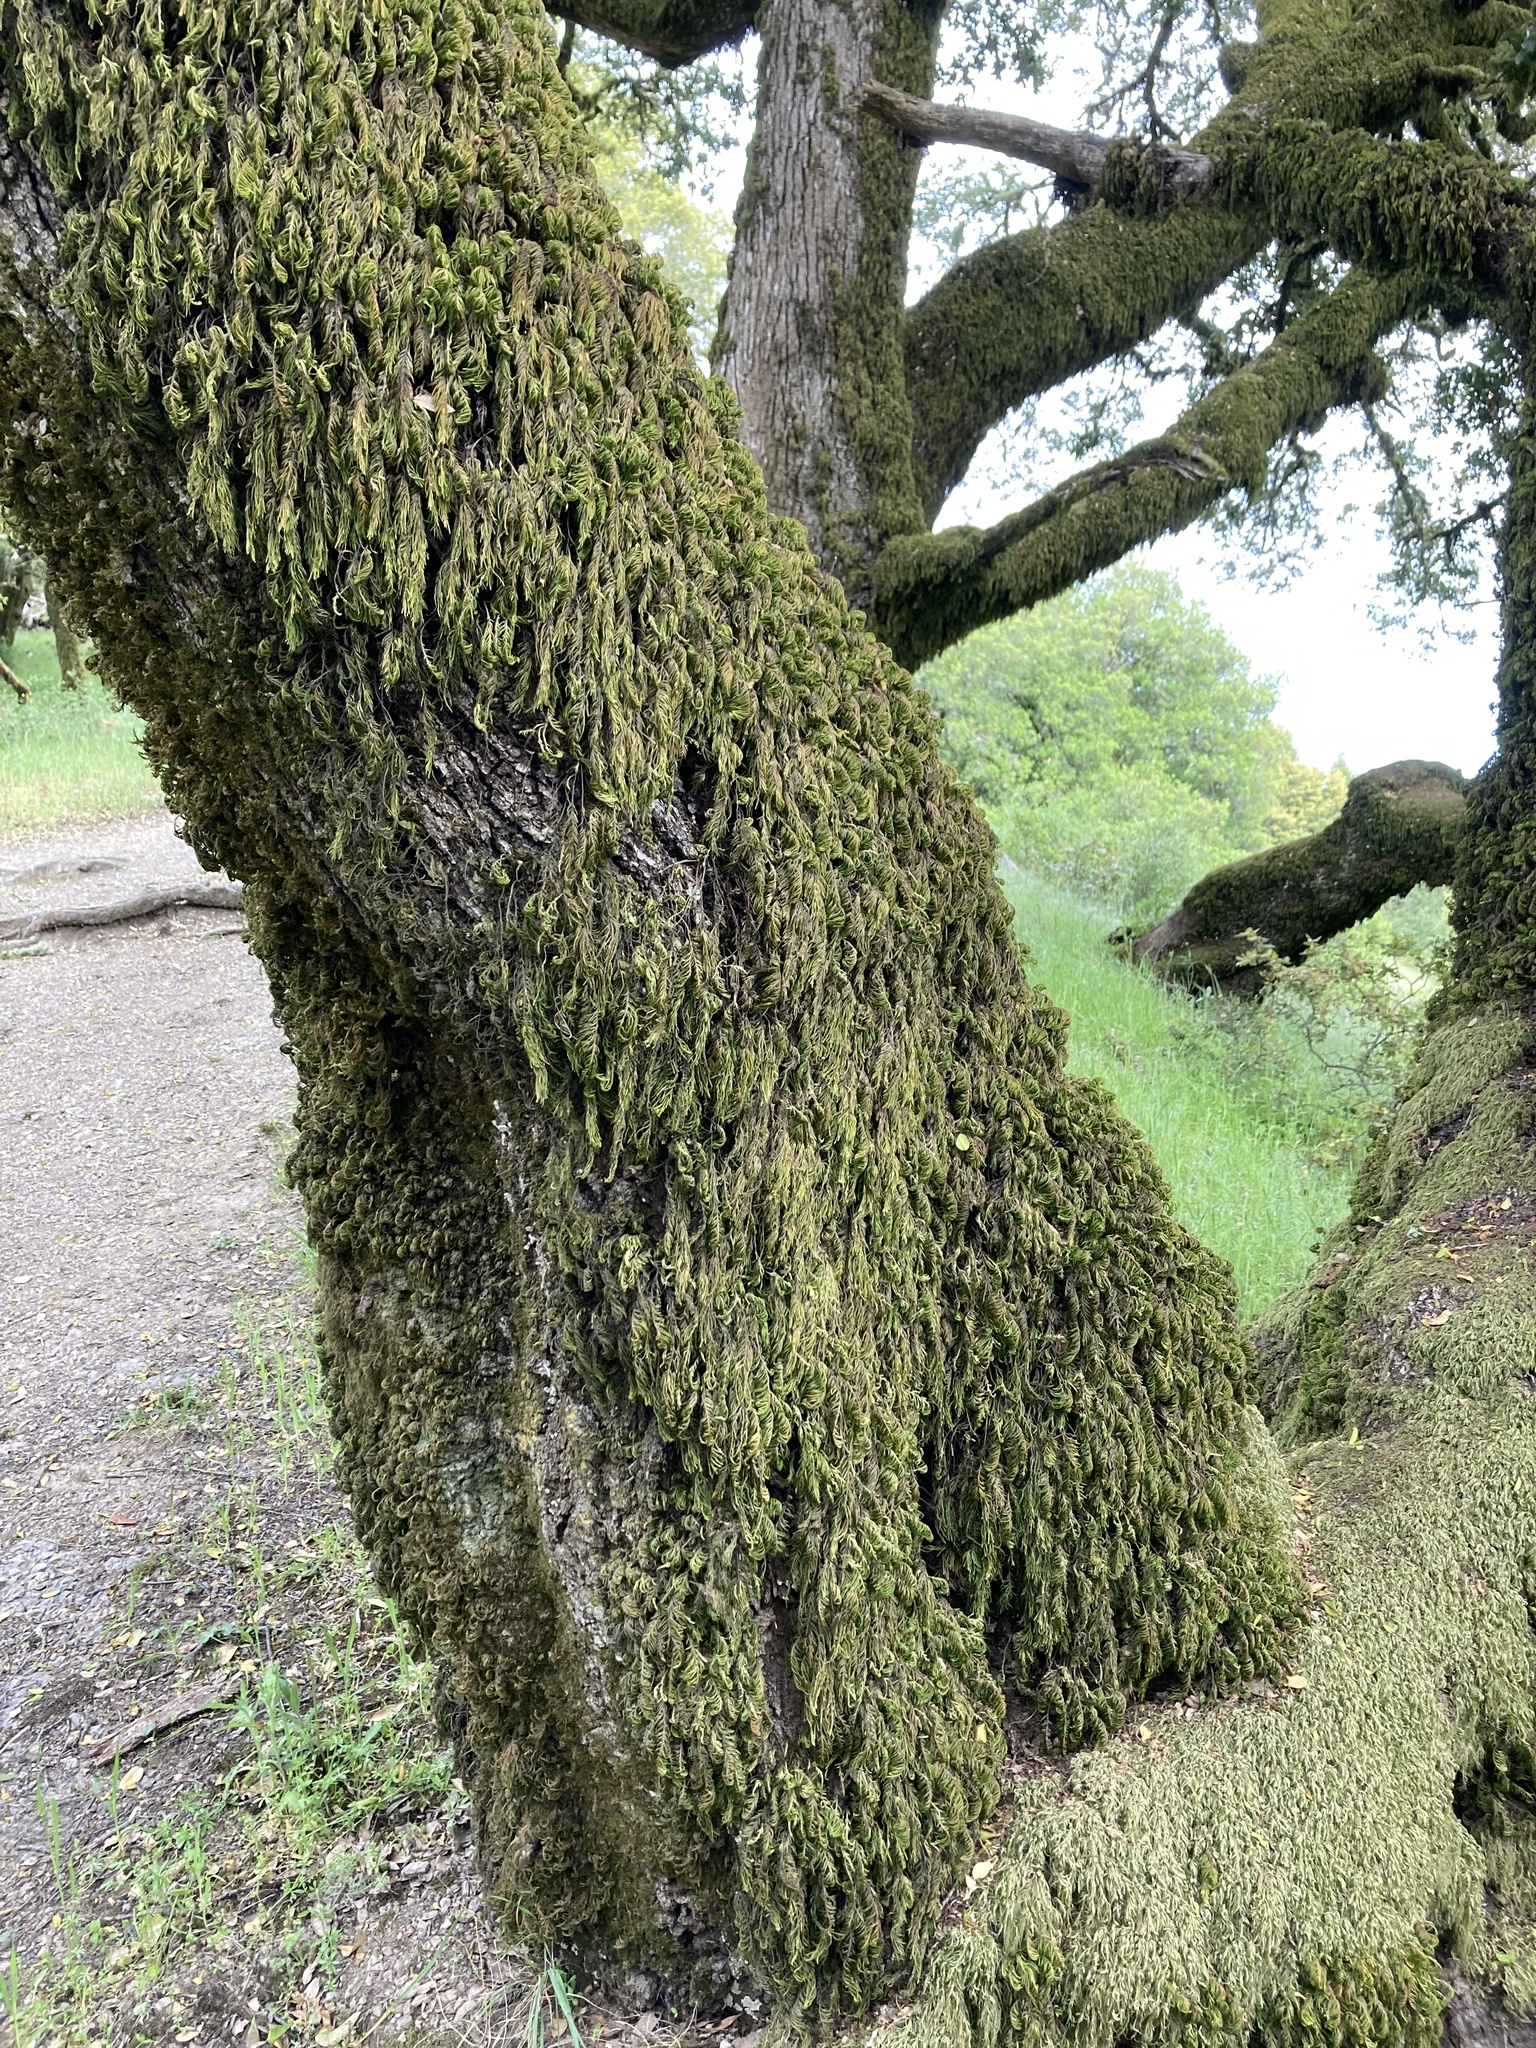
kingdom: Plantae
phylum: Bryophyta
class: Bryopsida
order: Hypnales
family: Cryphaeaceae
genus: Dendroalsia
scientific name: Dendroalsia abietina
